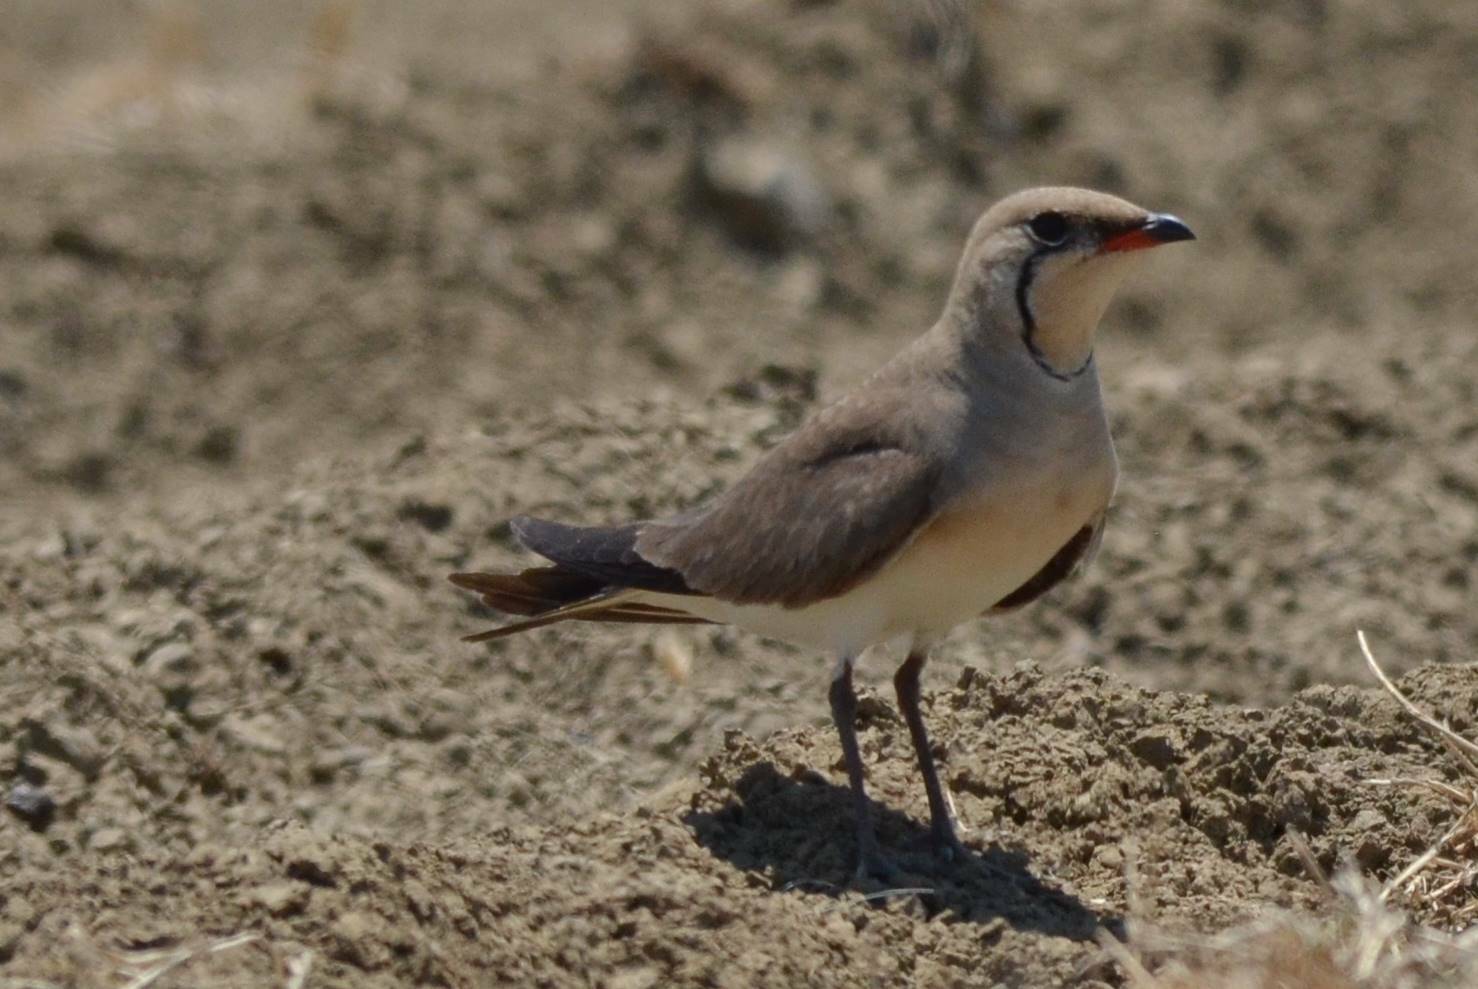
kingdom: Animalia
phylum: Chordata
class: Aves
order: Charadriiformes
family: Glareolidae
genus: Glareola
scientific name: Glareola pratincola
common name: Collared pratincole
